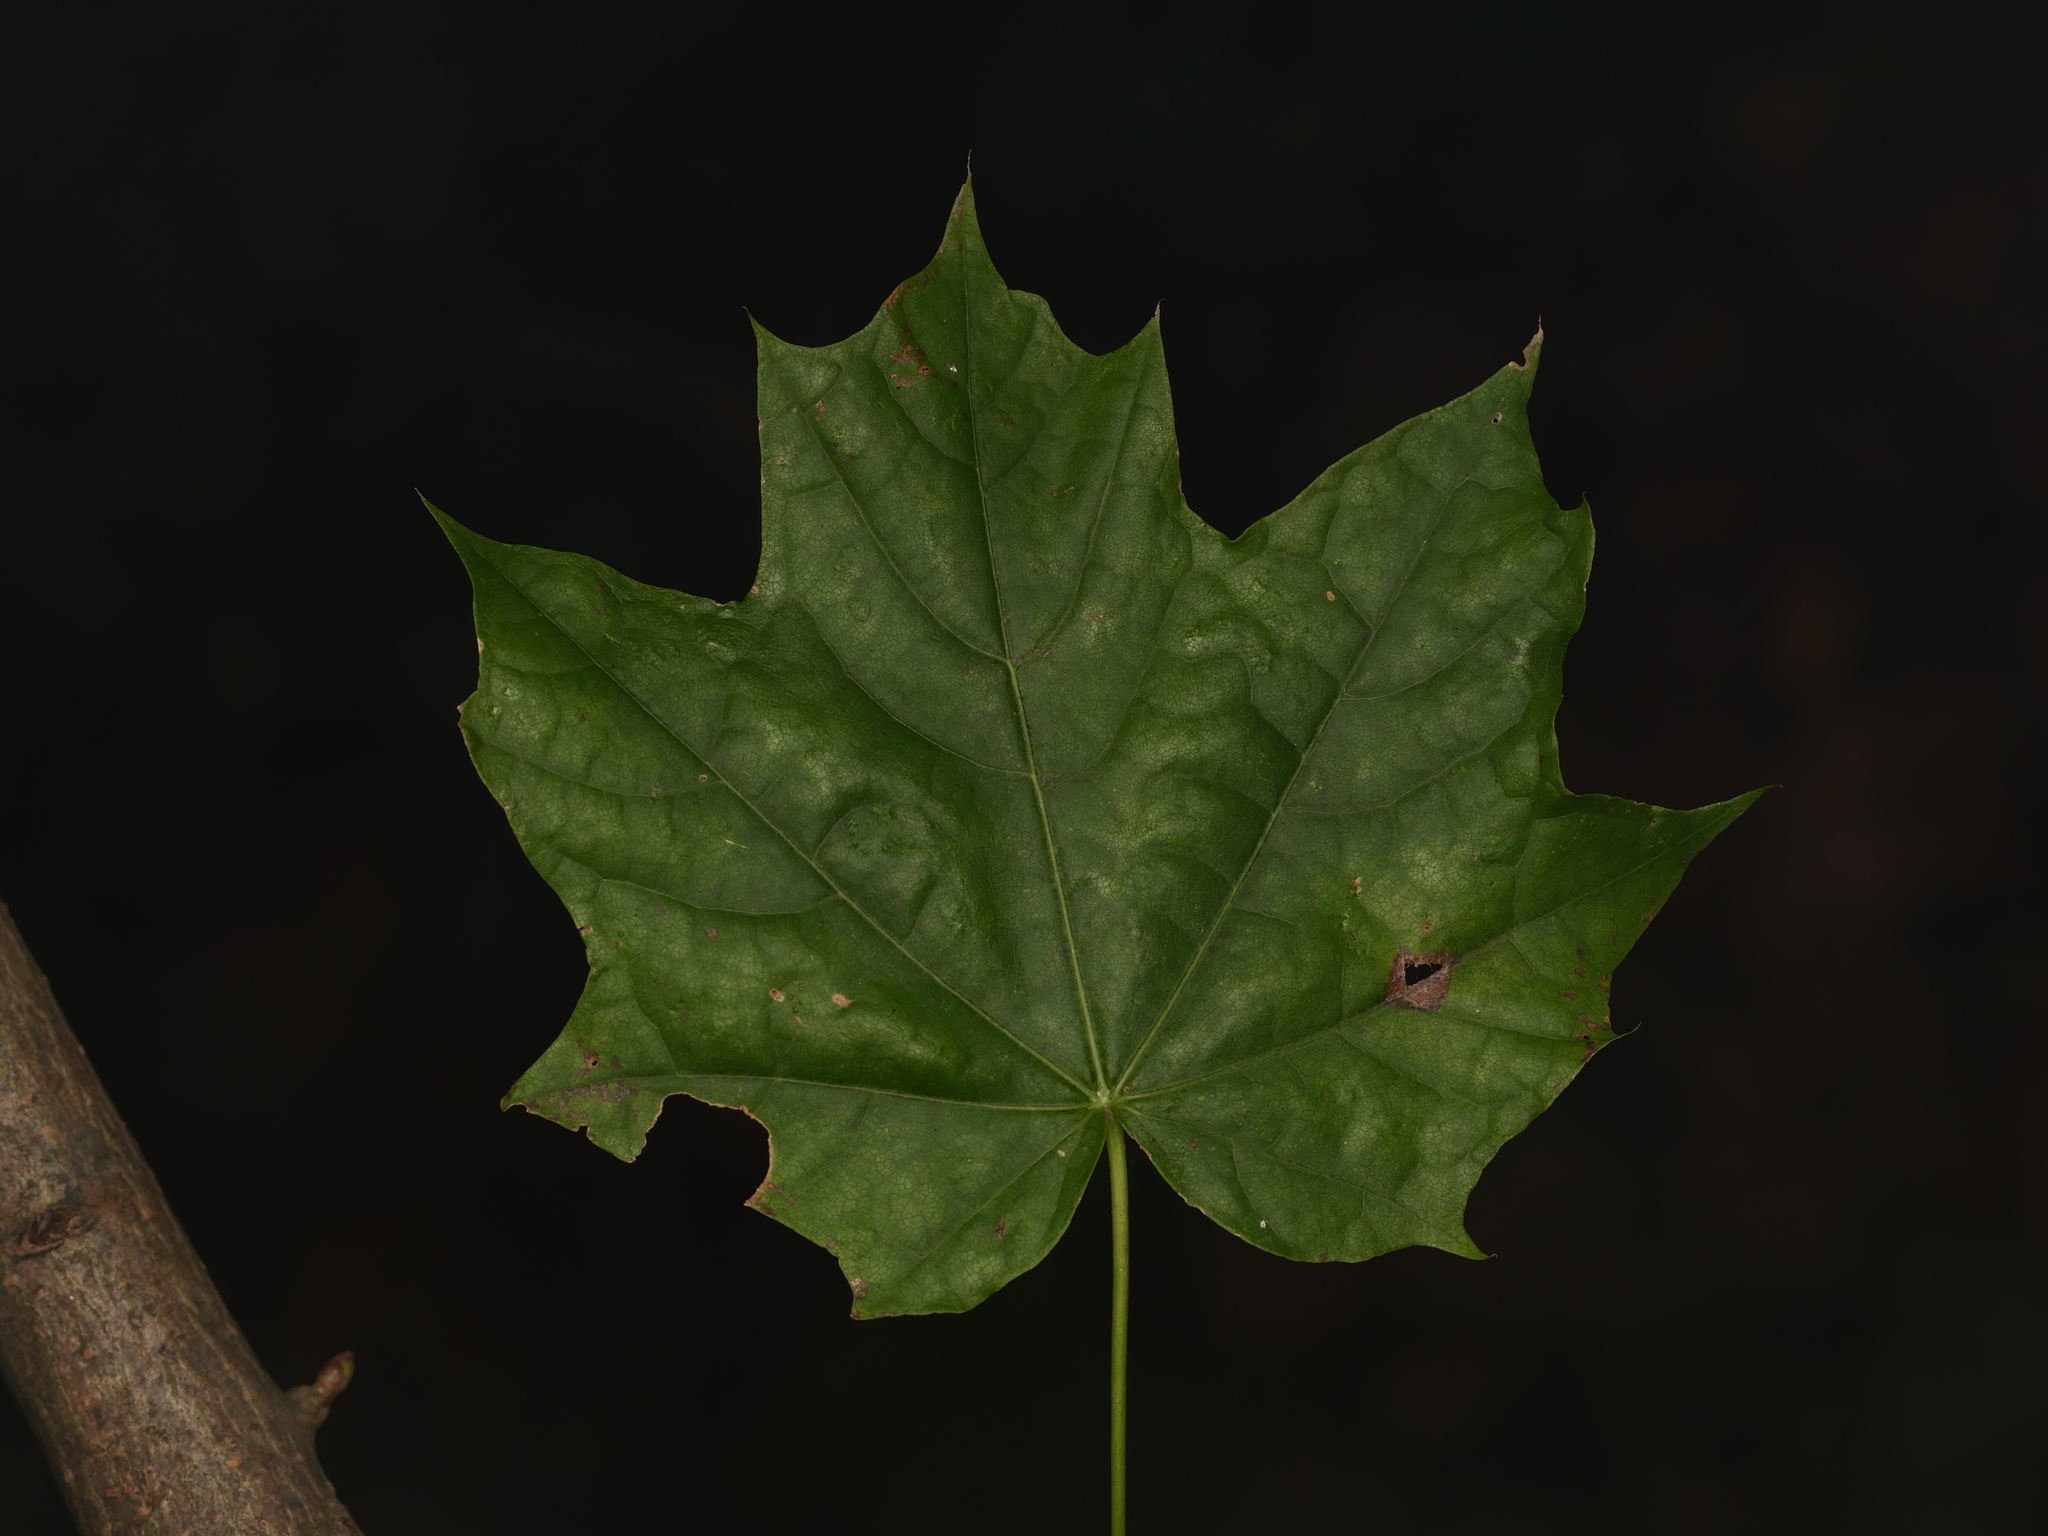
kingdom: Plantae
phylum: Tracheophyta
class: Magnoliopsida
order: Sapindales
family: Sapindaceae
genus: Acer
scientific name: Acer platanoides
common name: Norway maple
